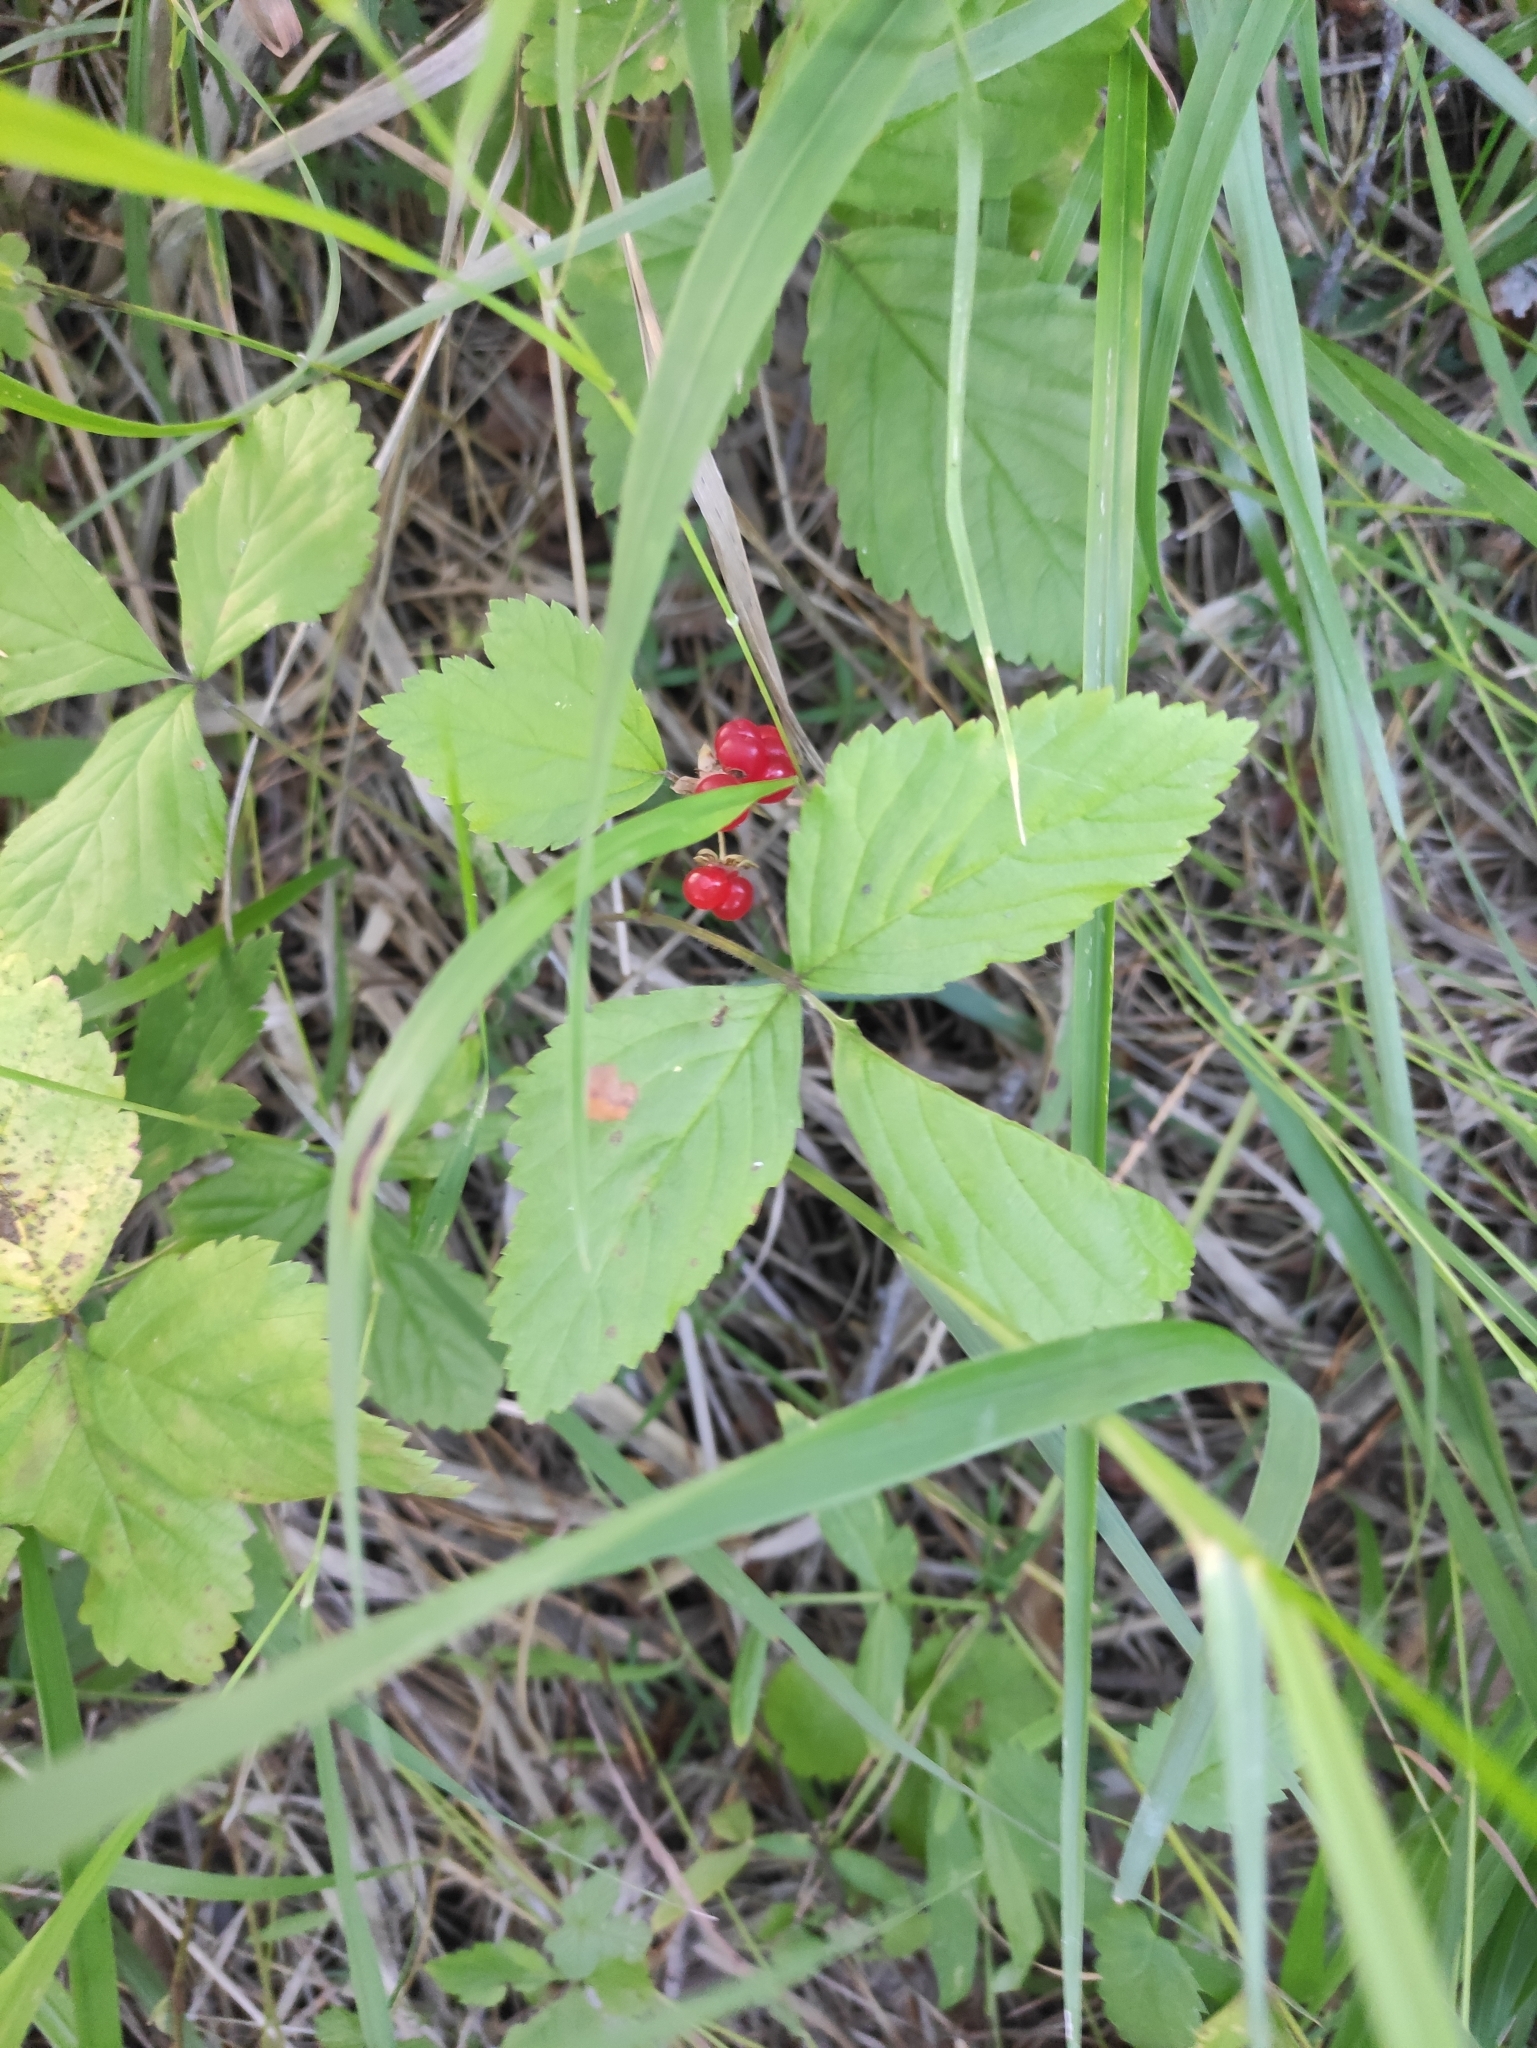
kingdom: Plantae
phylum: Tracheophyta
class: Magnoliopsida
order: Rosales
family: Rosaceae
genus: Rubus
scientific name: Rubus saxatilis
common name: Stone bramble
